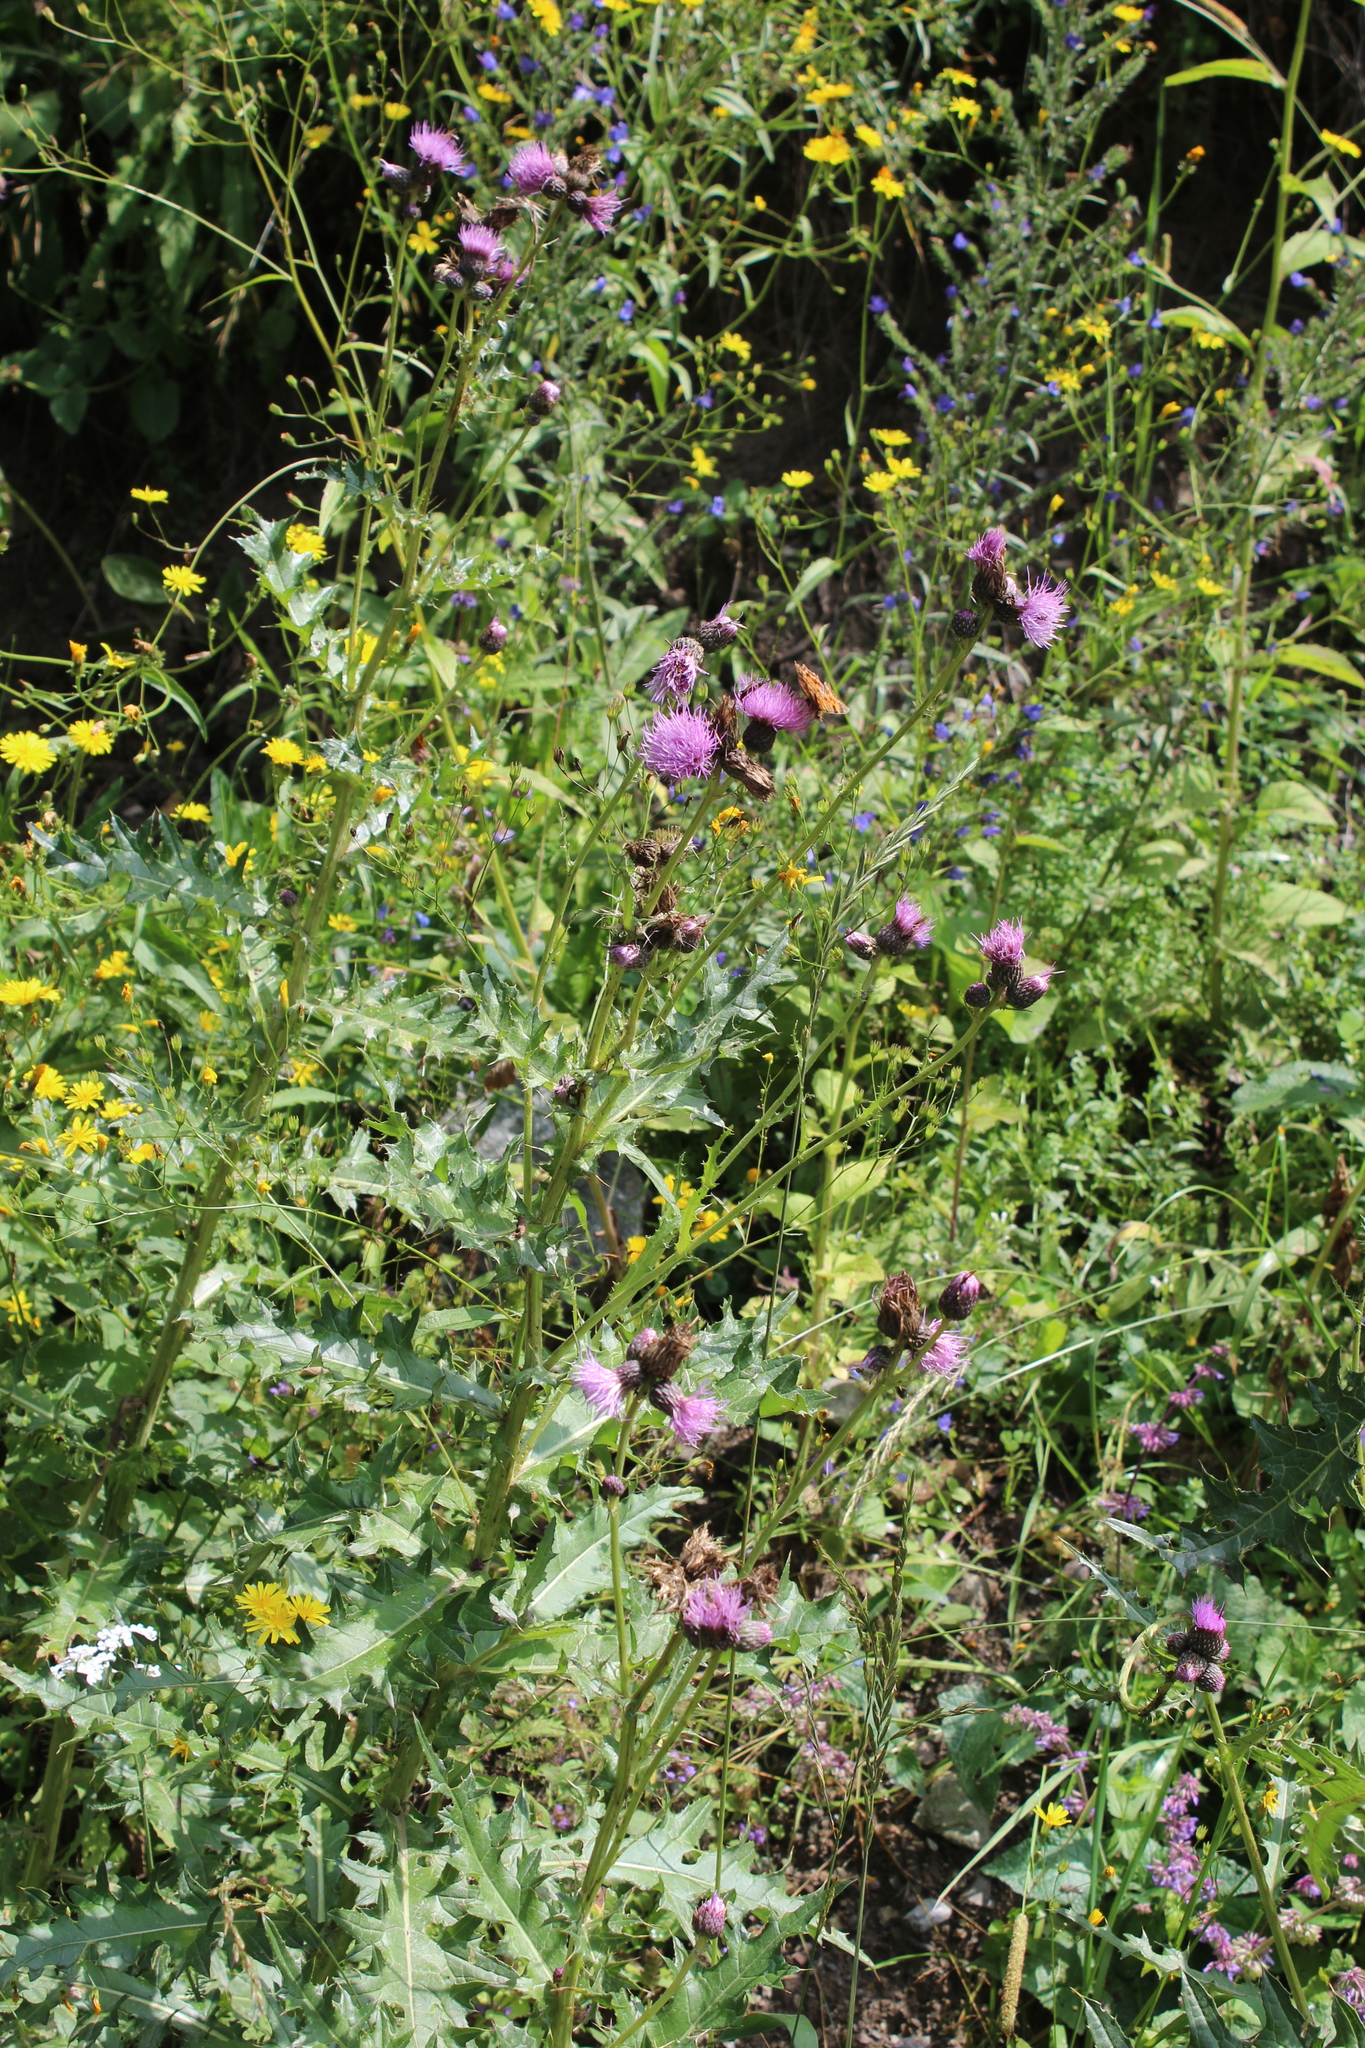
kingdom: Plantae
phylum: Tracheophyta
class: Magnoliopsida
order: Asterales
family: Asteraceae
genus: Cirsium
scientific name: Cirsium elbrusense
